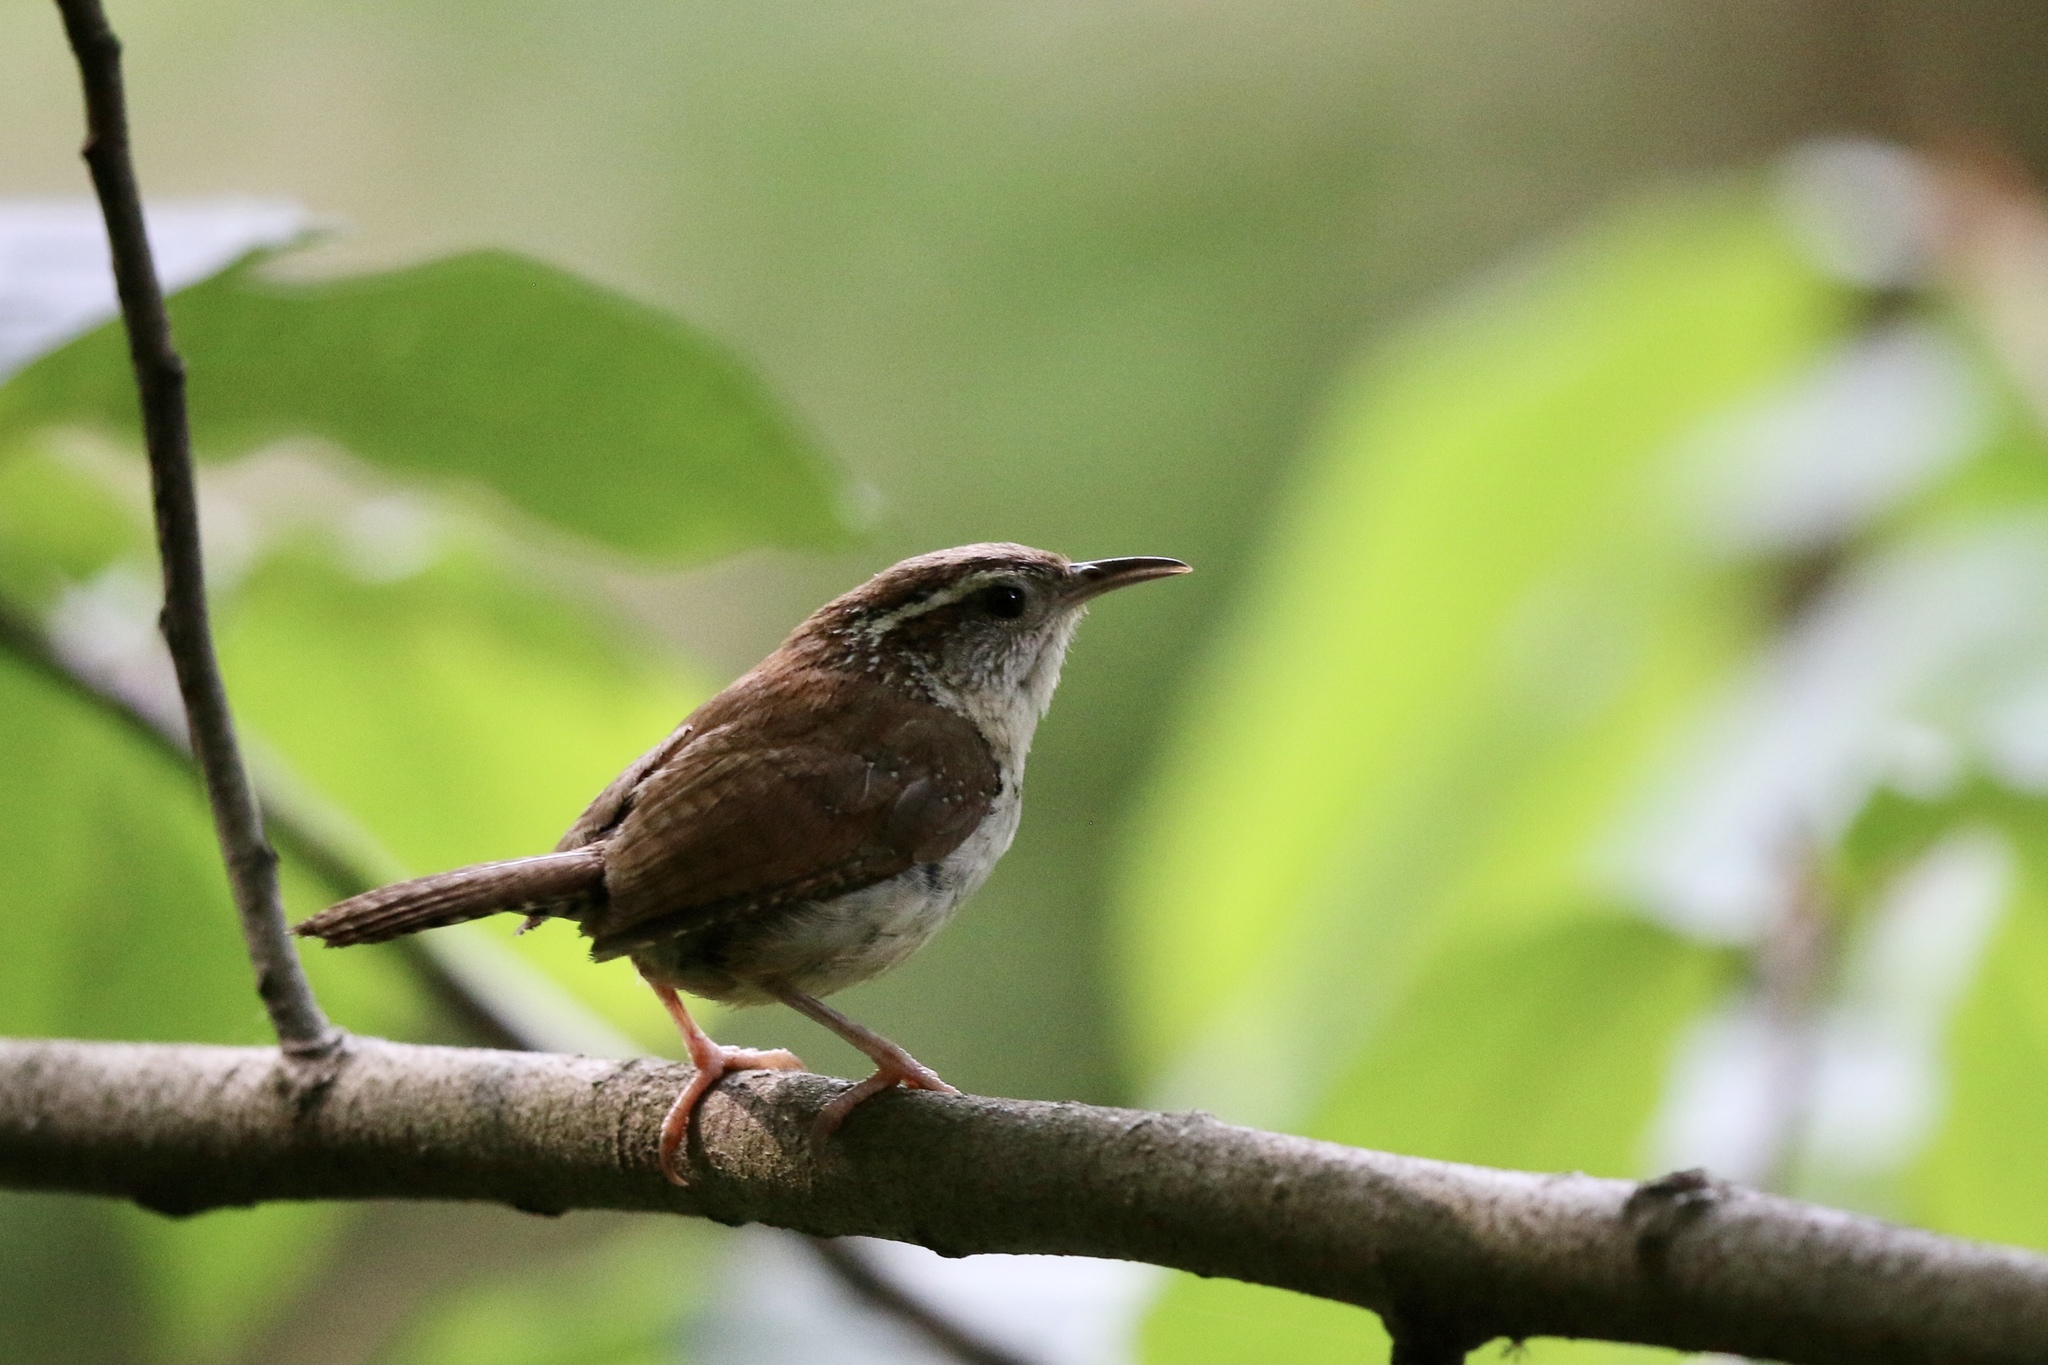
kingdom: Animalia
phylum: Chordata
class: Aves
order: Passeriformes
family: Troglodytidae
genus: Thryothorus
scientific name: Thryothorus ludovicianus
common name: Carolina wren
